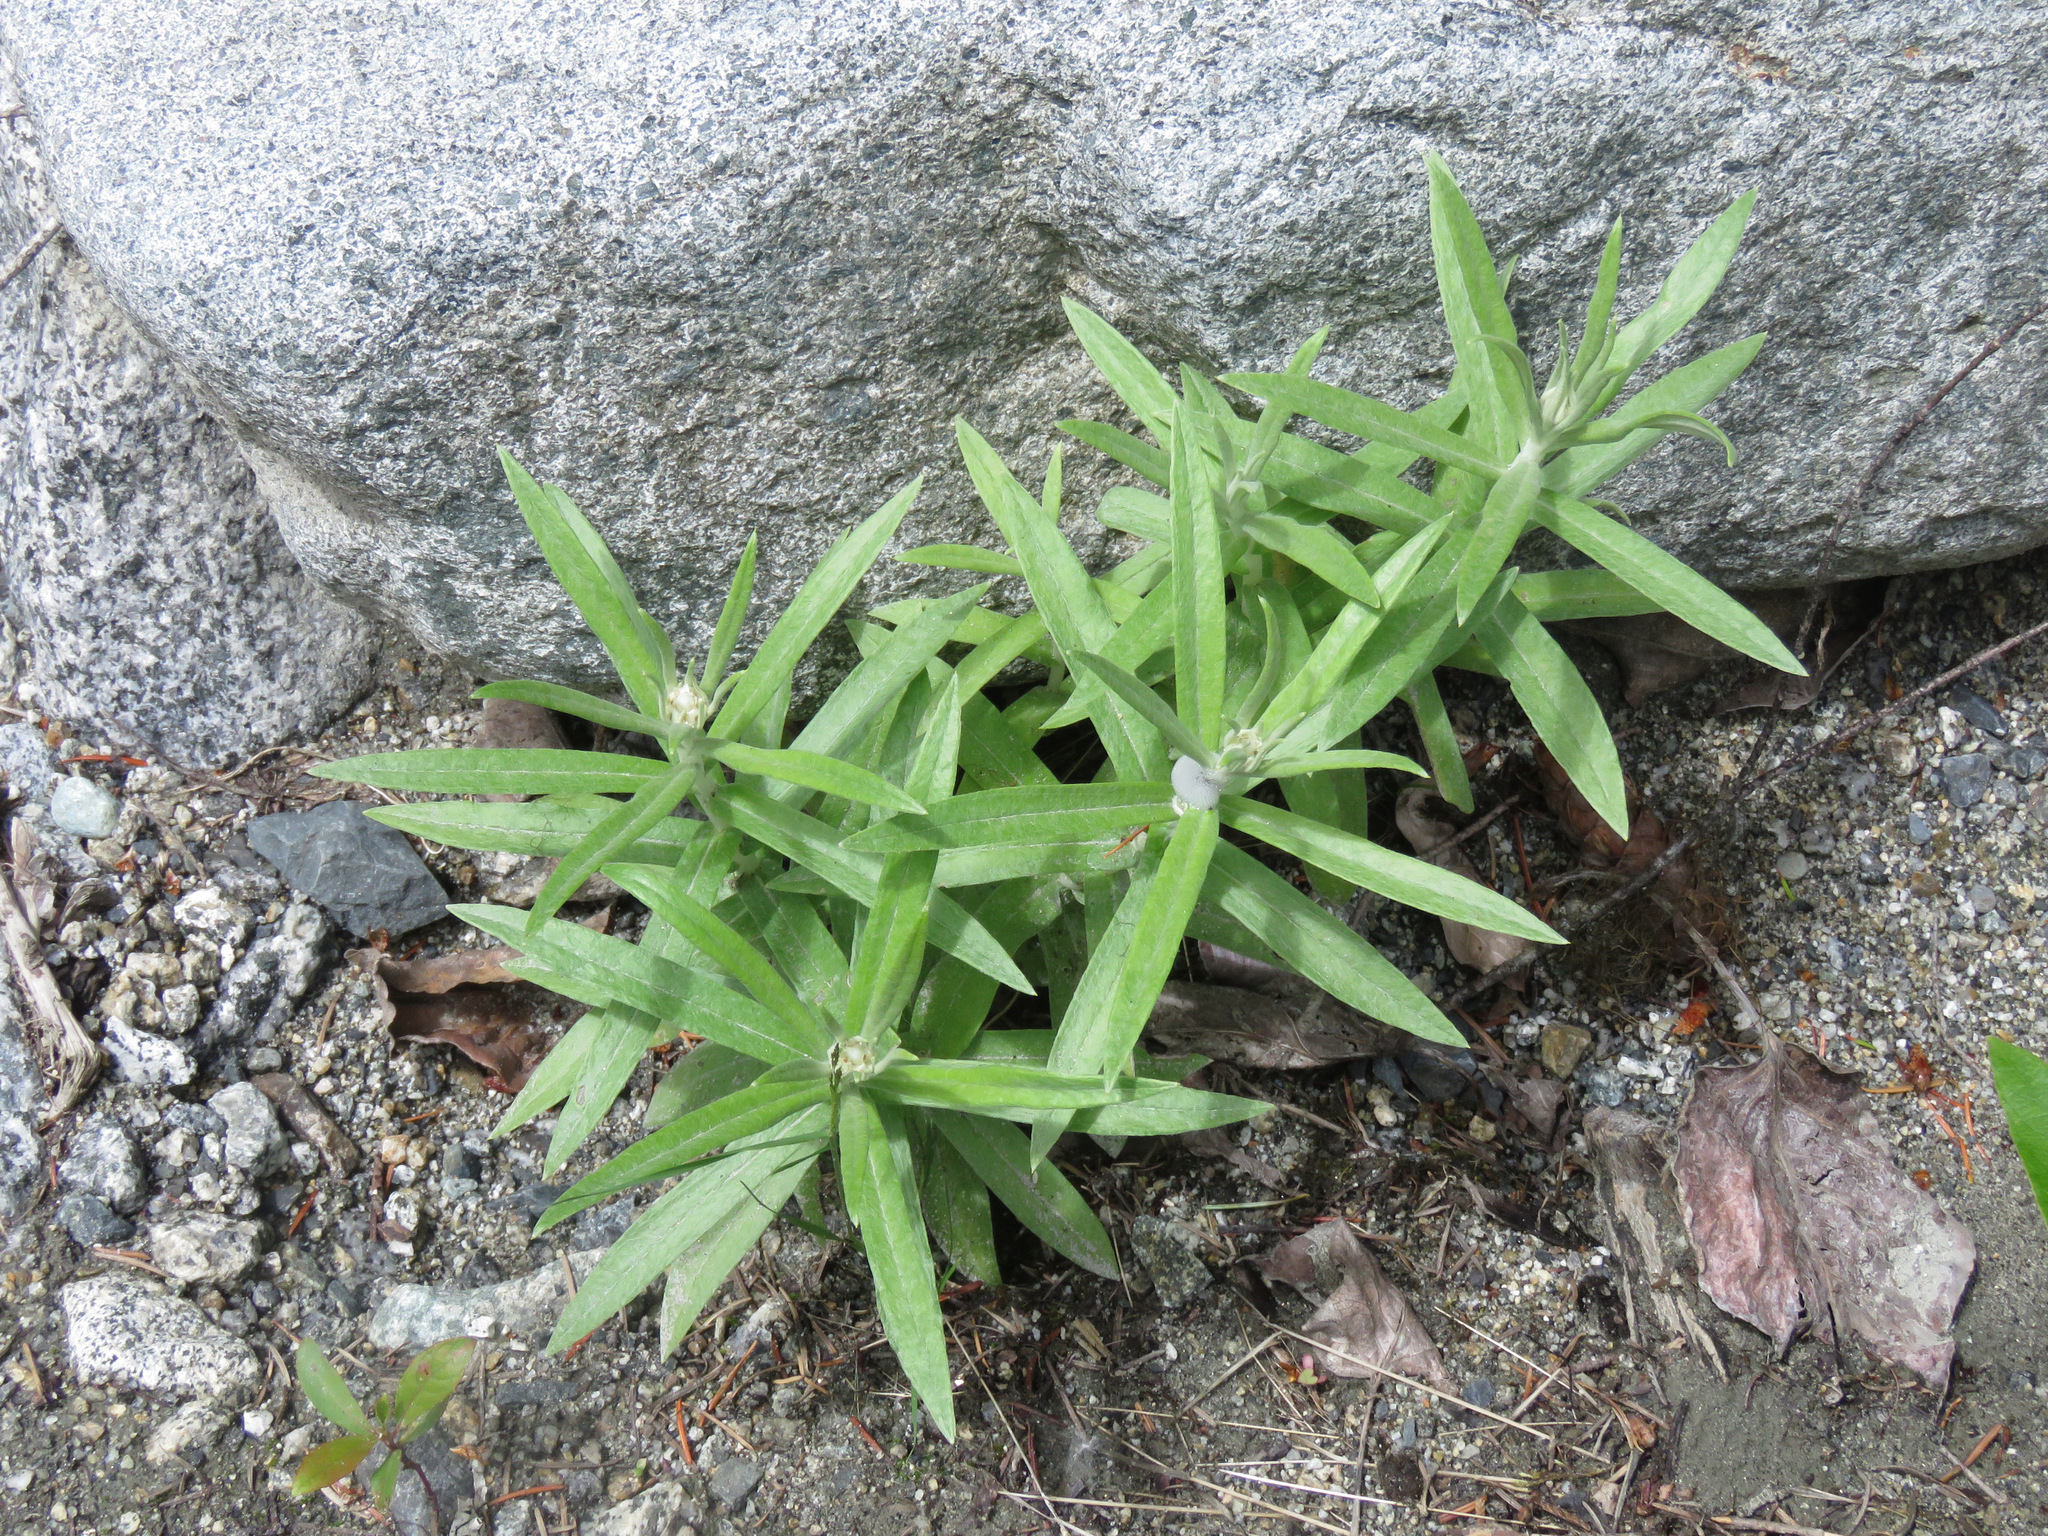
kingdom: Plantae
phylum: Tracheophyta
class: Magnoliopsida
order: Asterales
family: Asteraceae
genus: Anaphalis
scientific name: Anaphalis margaritacea
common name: Pearly everlasting
